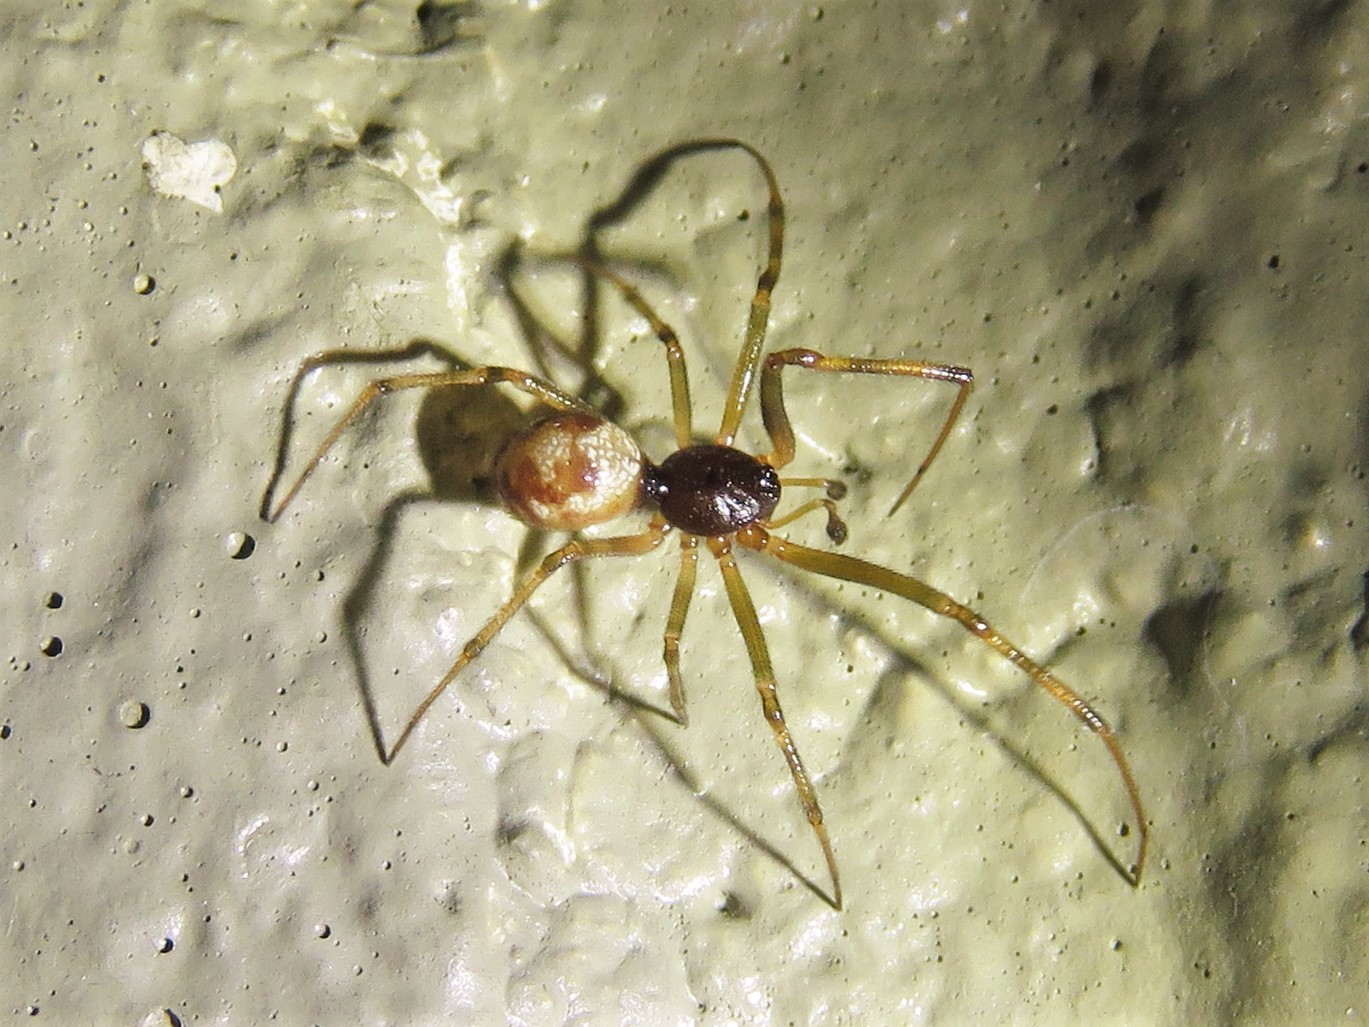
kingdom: Animalia
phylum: Arthropoda
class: Arachnida
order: Araneae
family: Theridiidae
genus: Steatoda
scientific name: Steatoda triangulosa
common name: Triangulate bud spider
